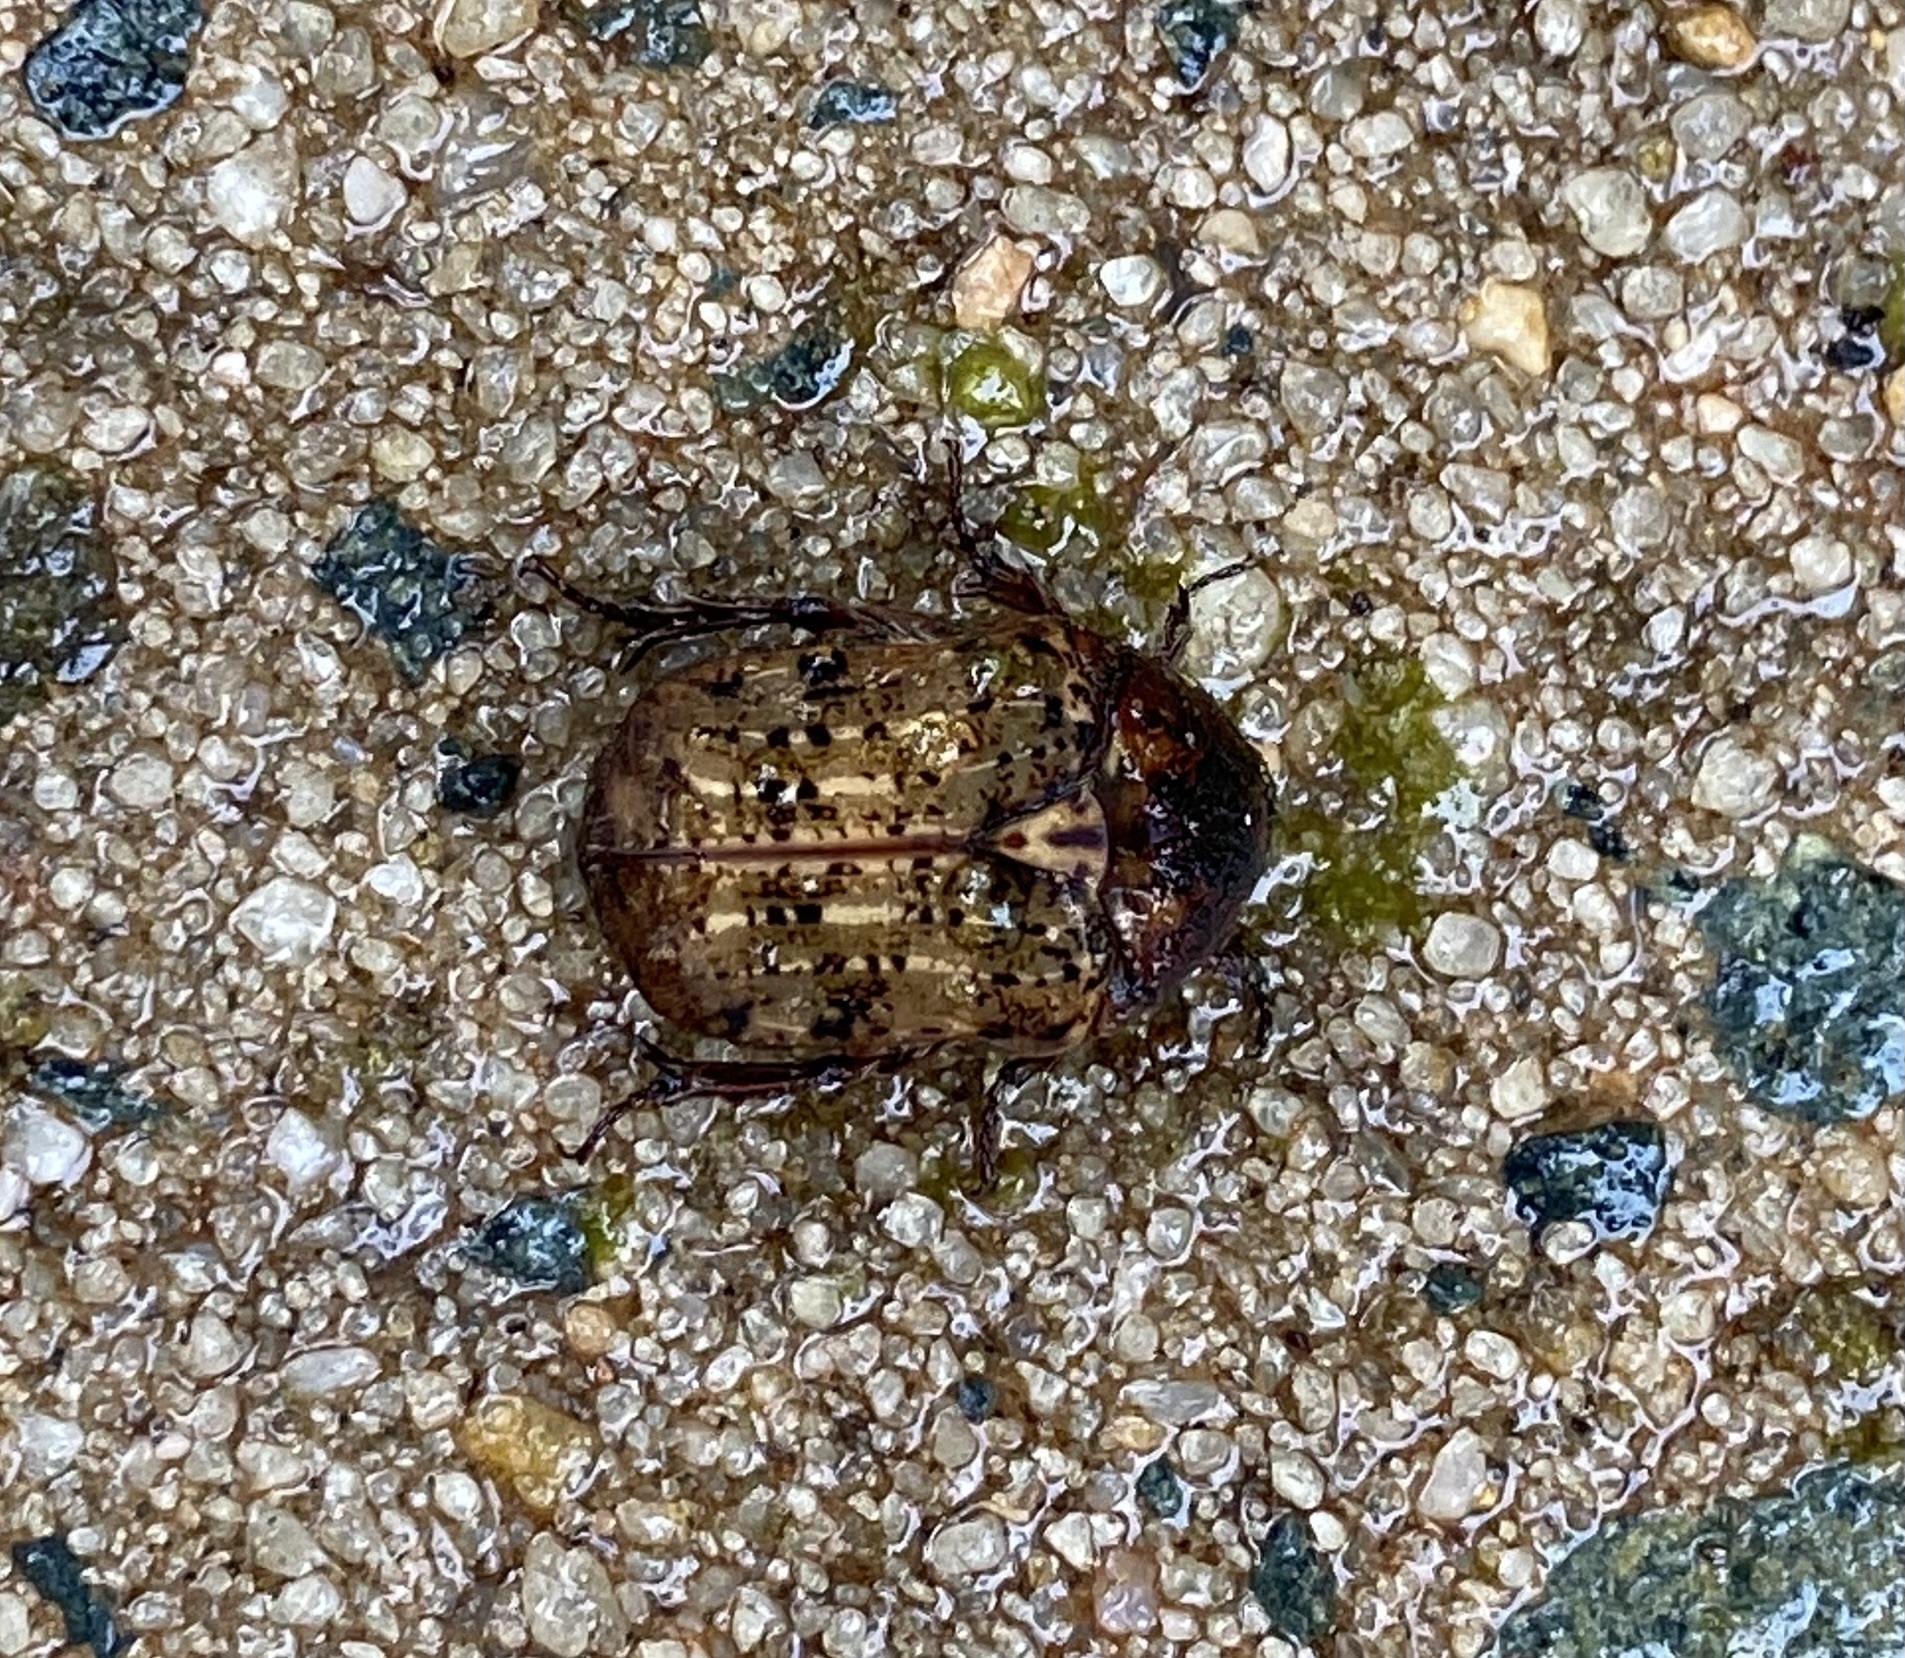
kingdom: Animalia
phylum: Arthropoda
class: Insecta
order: Coleoptera
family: Scarabaeidae
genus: Euphoria
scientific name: Euphoria inda
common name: Bumble flower beetle
